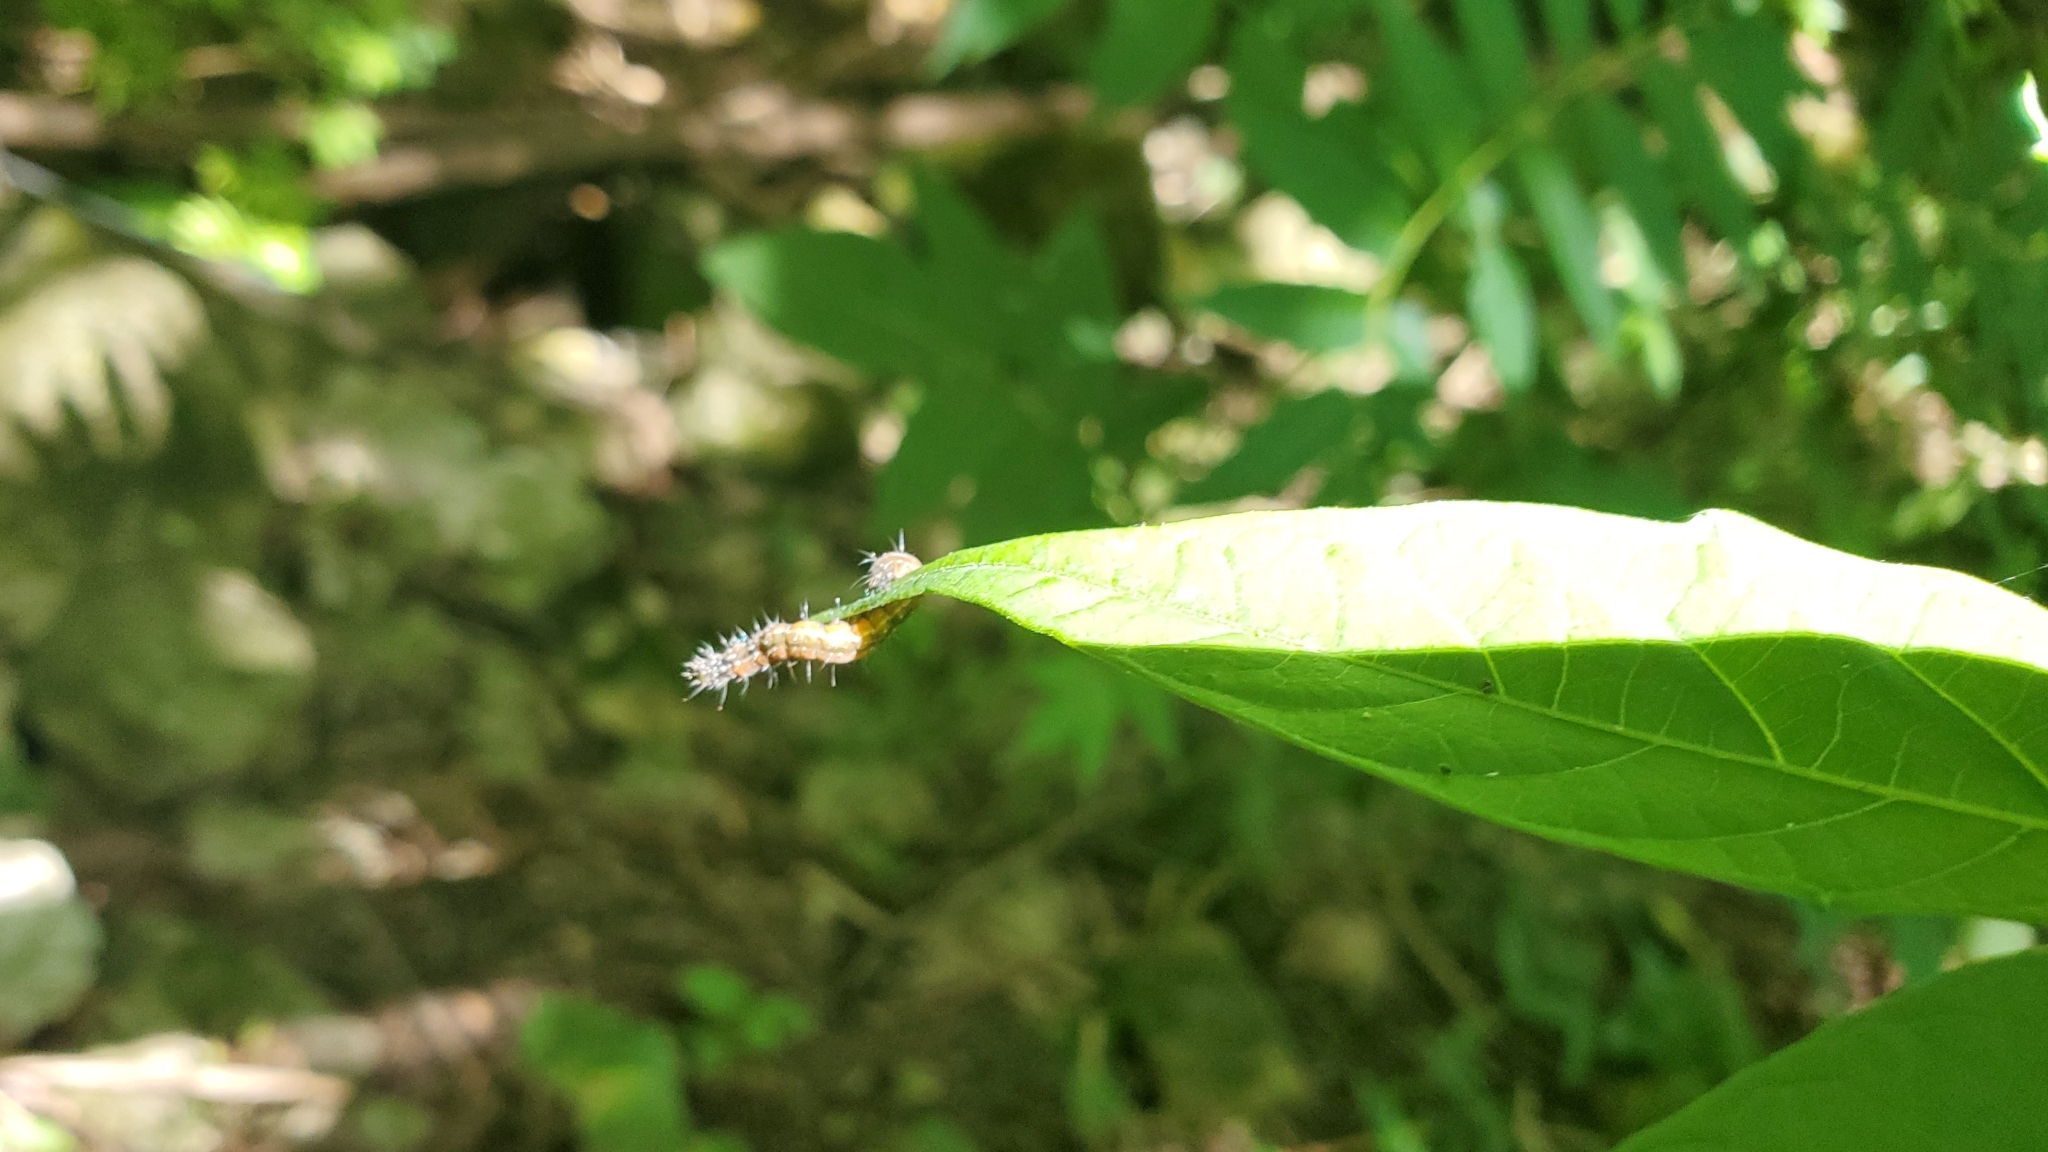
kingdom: Animalia
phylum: Arthropoda
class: Insecta
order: Lepidoptera
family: Attevidae
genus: Atteva
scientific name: Atteva punctella
